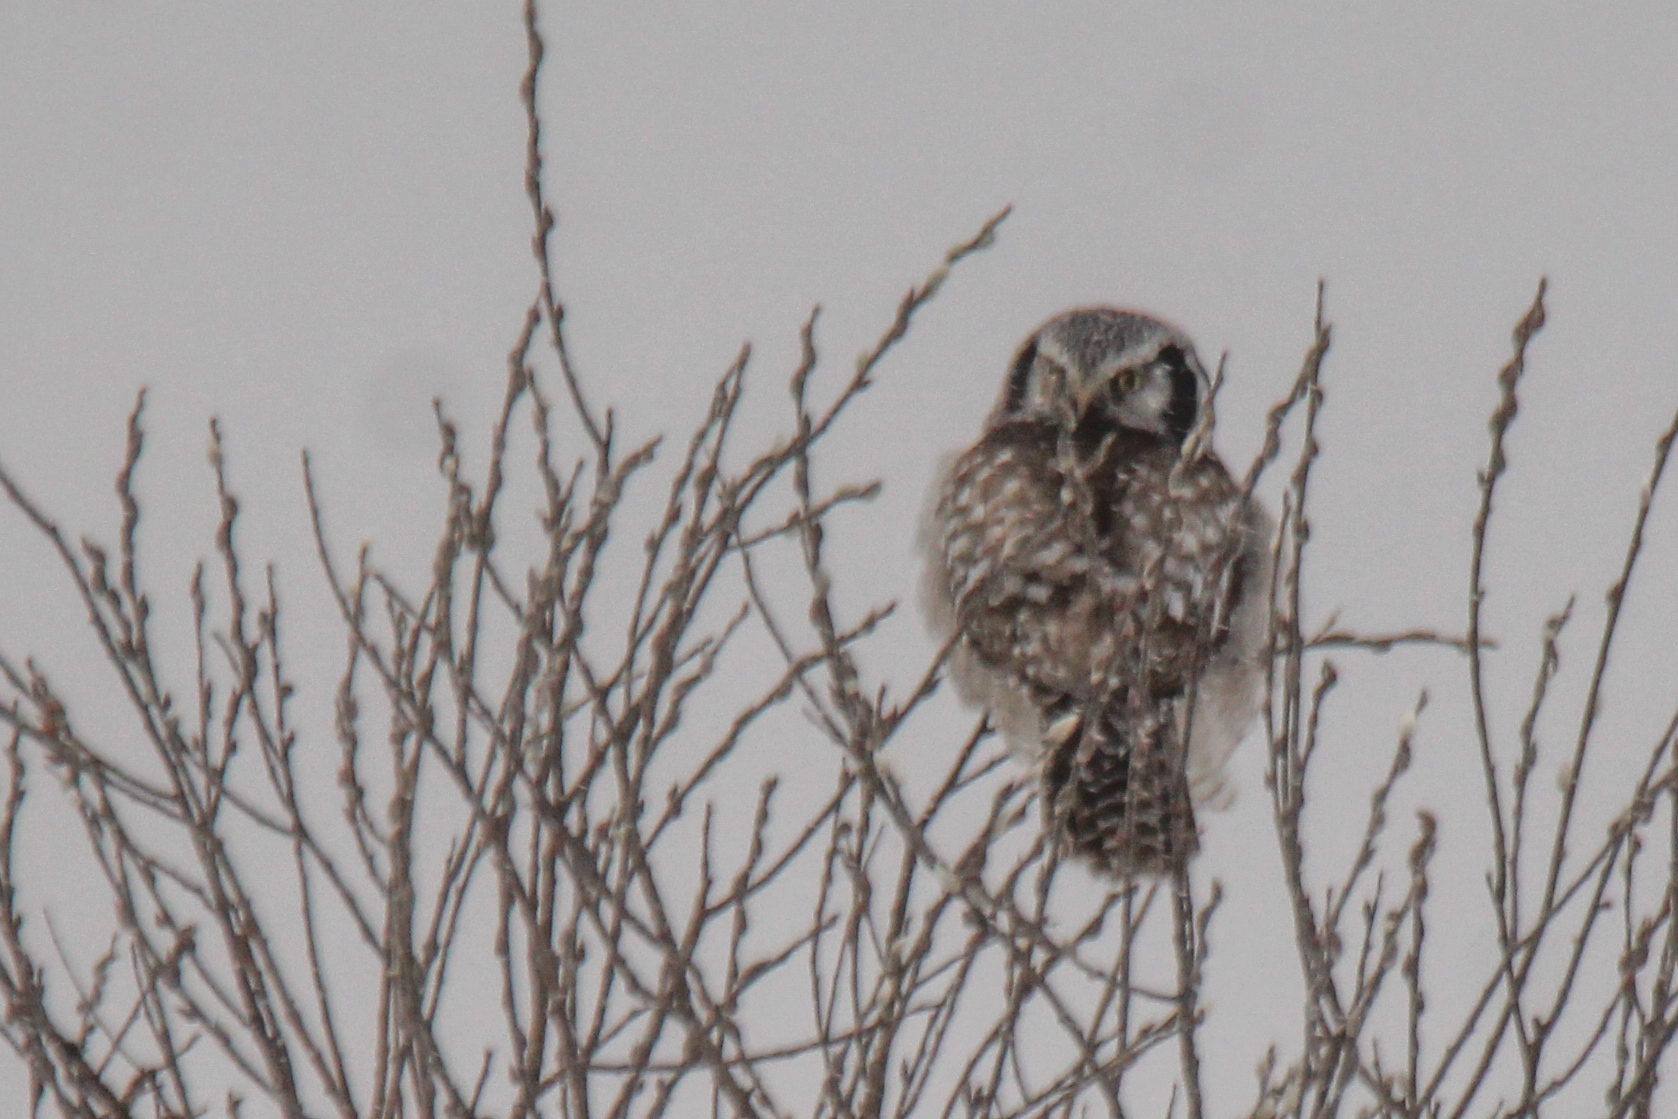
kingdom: Animalia
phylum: Chordata
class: Aves
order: Strigiformes
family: Strigidae
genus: Surnia
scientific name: Surnia ulula
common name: Northern hawk-owl
